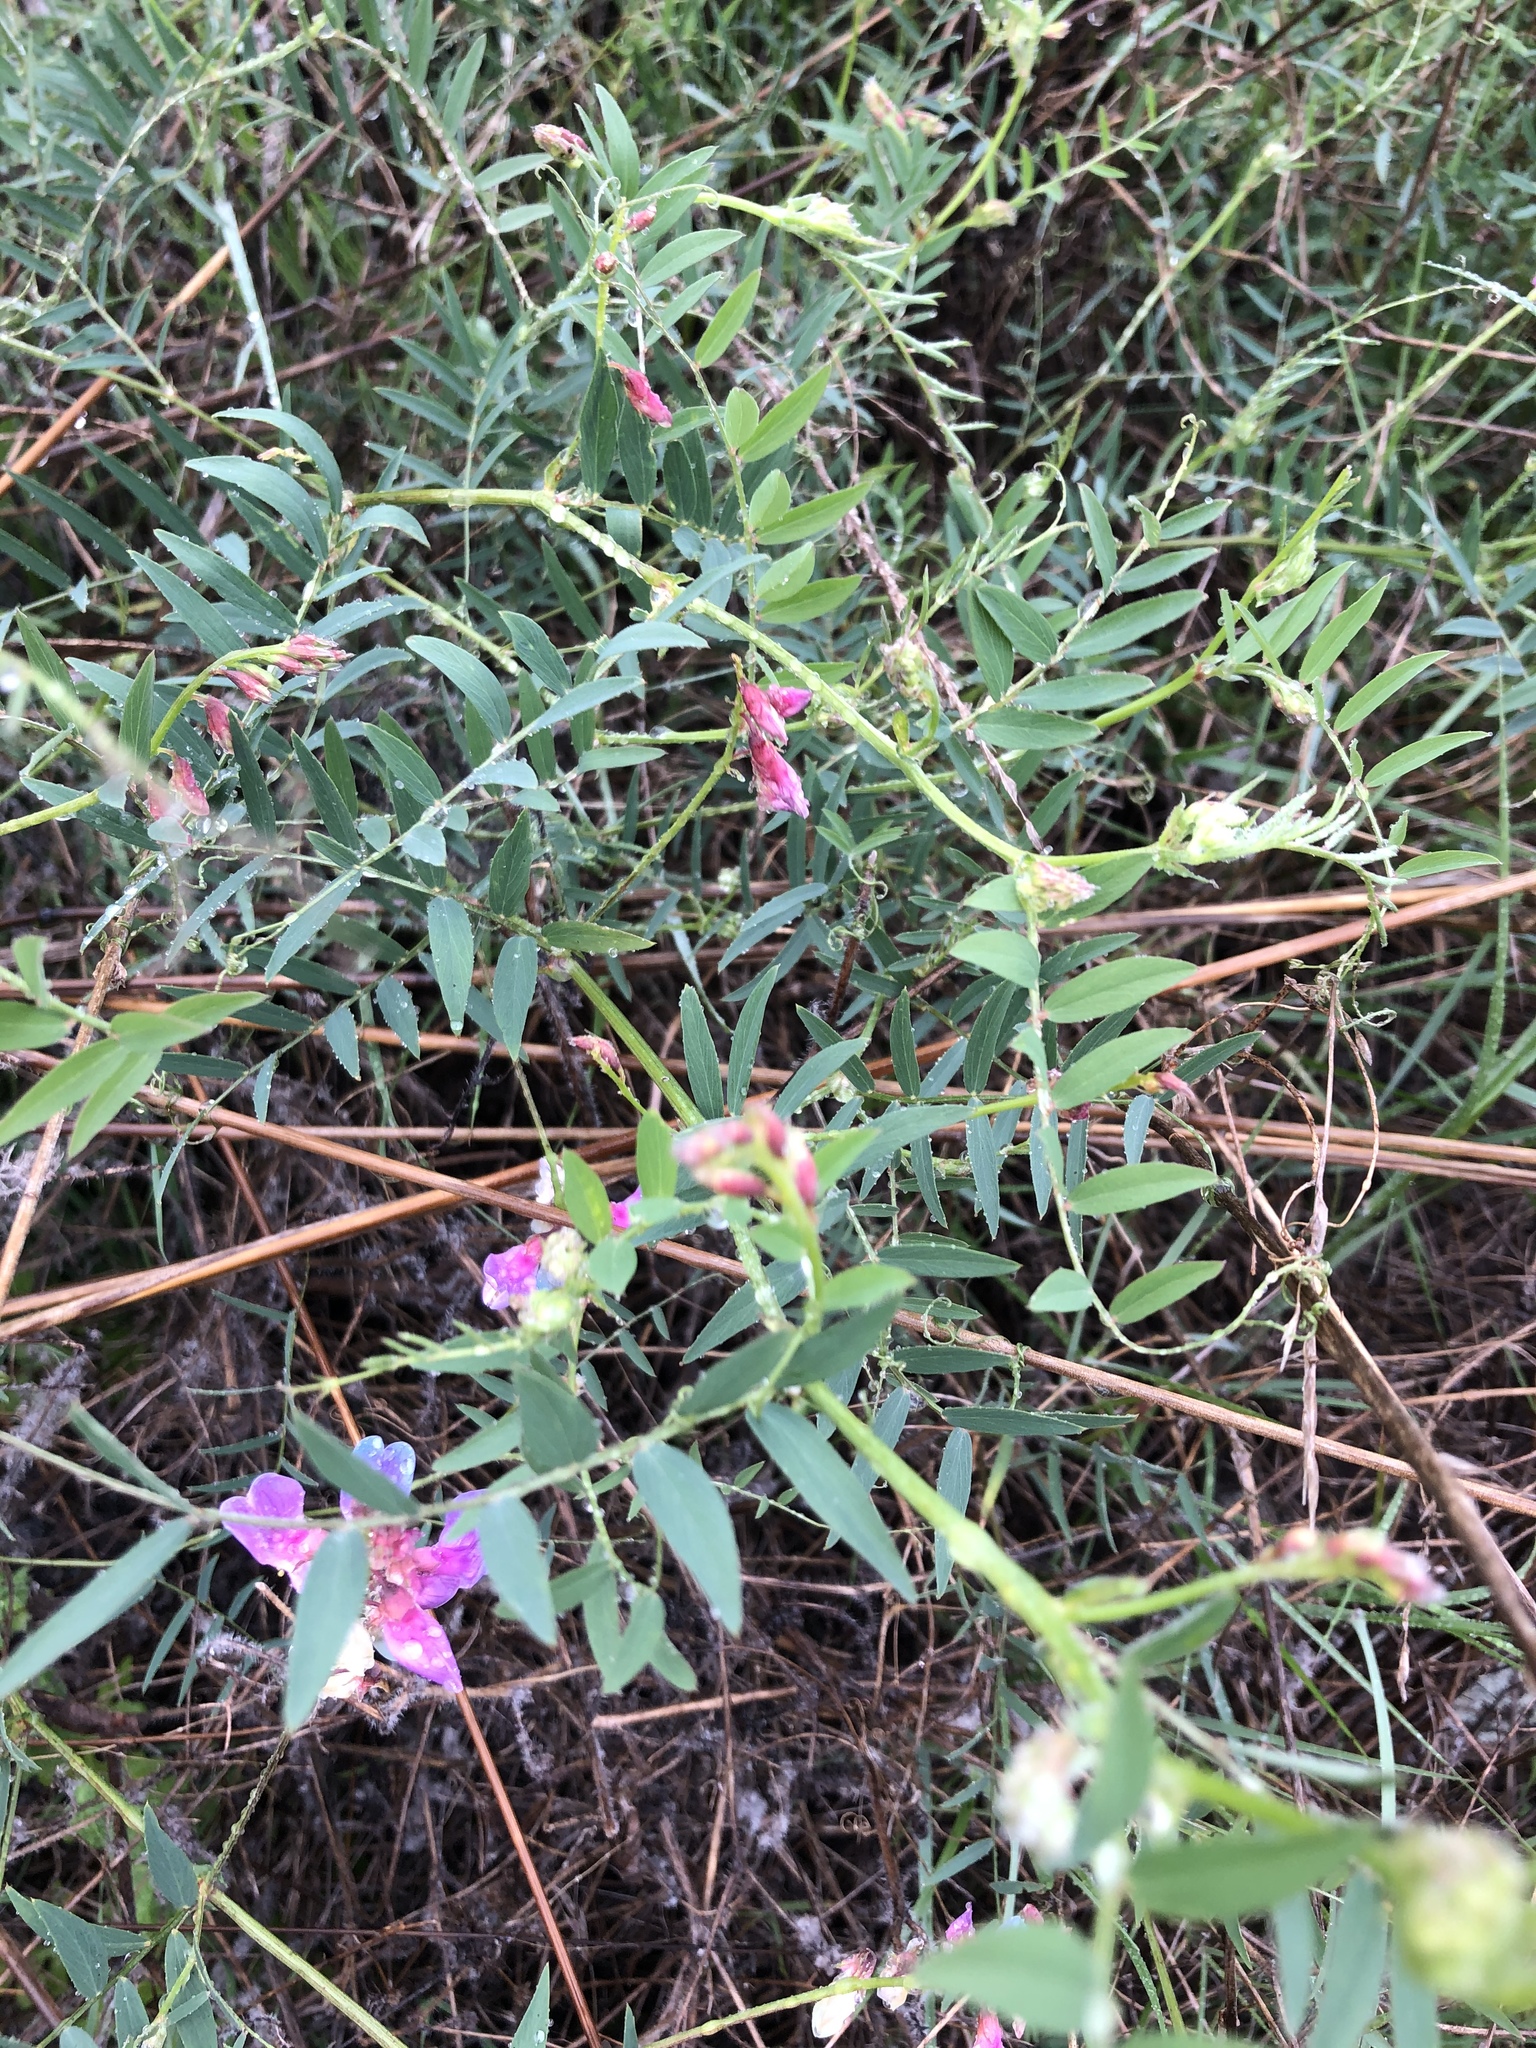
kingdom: Plantae
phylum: Tracheophyta
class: Magnoliopsida
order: Fabales
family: Fabaceae
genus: Lathyrus
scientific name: Lathyrus vestitus
